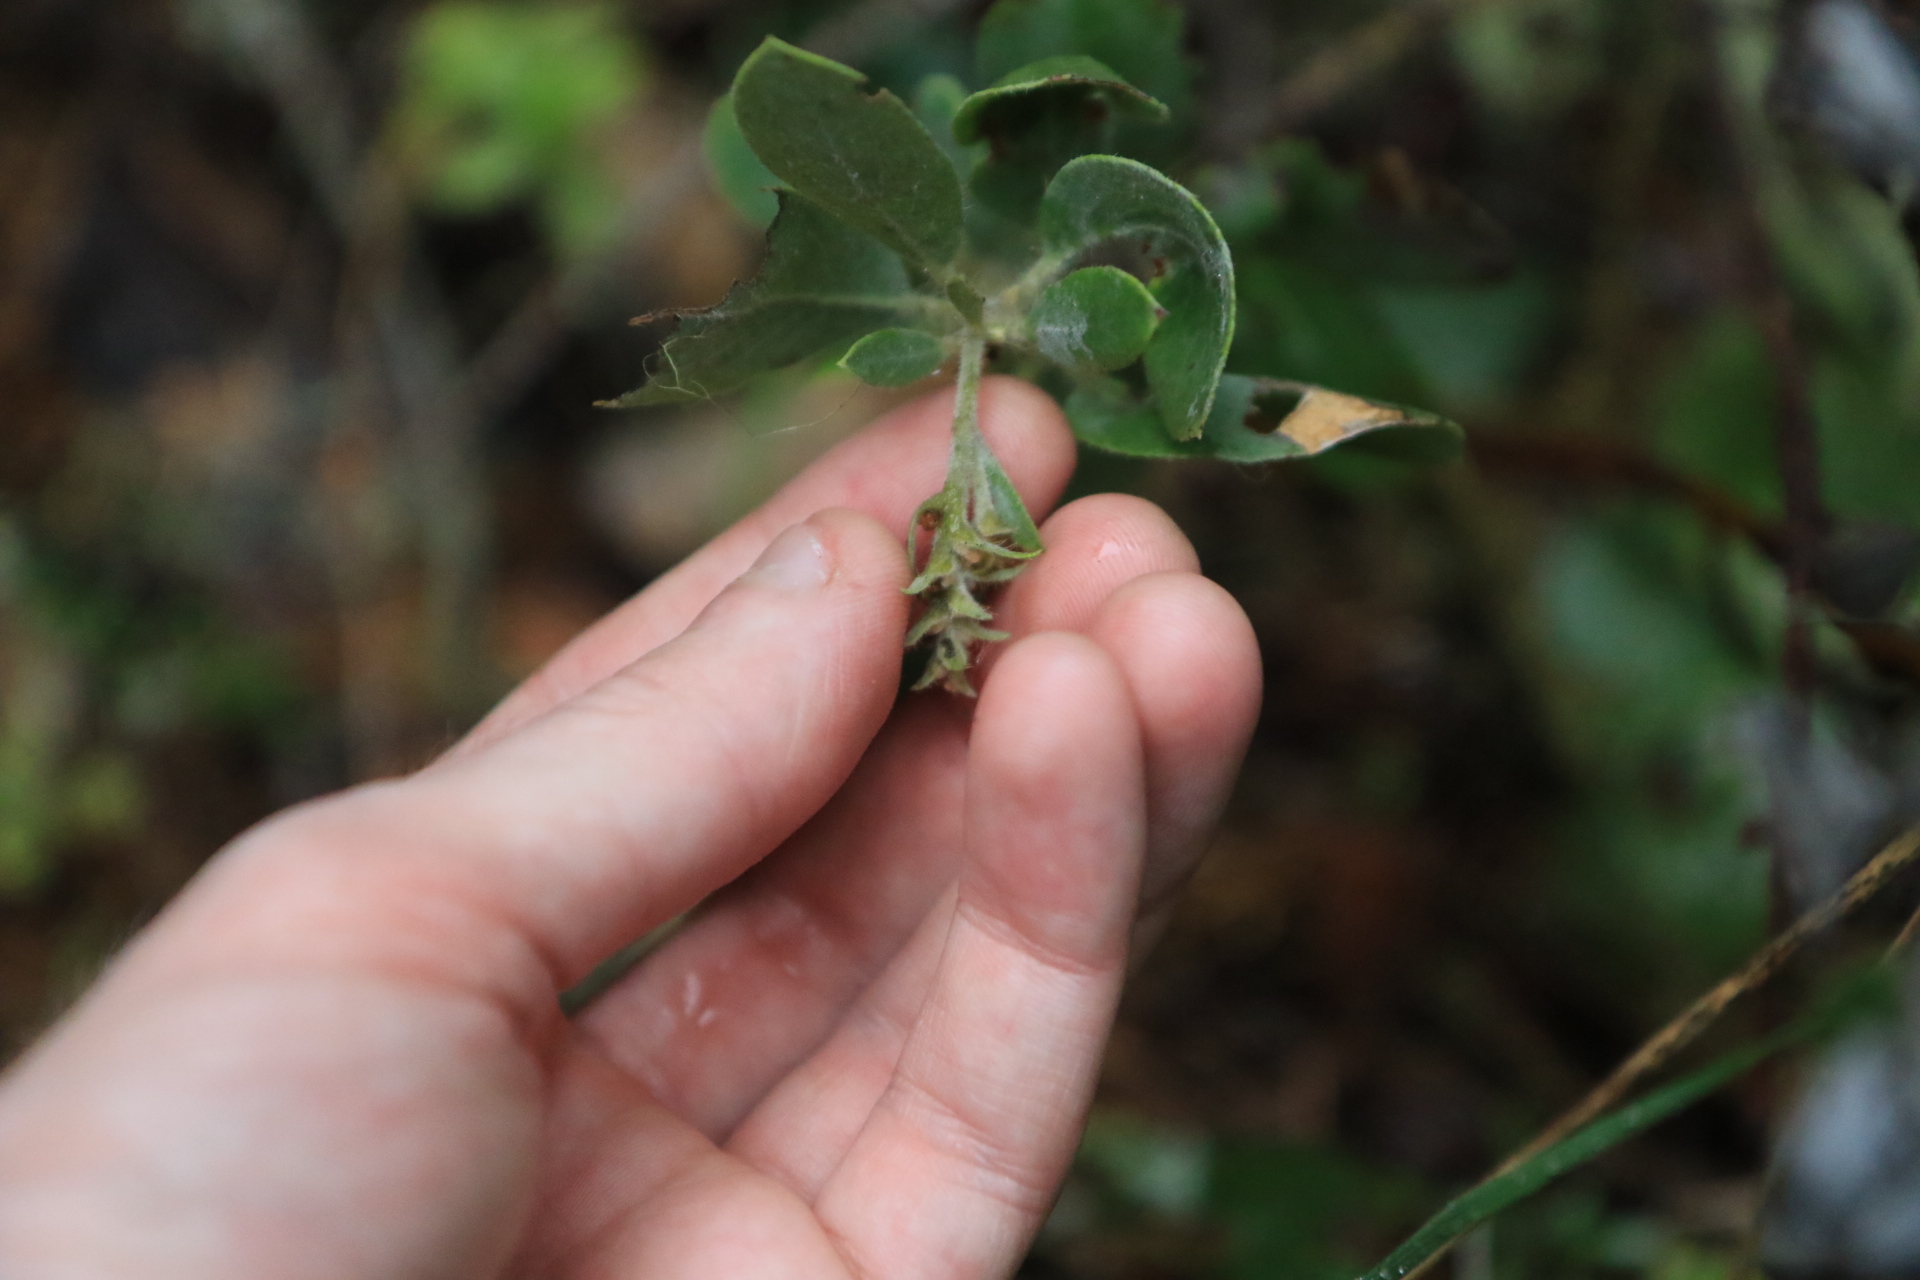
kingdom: Plantae
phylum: Tracheophyta
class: Magnoliopsida
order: Ericales
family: Ericaceae
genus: Arctostaphylos
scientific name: Arctostaphylos columbiana
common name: Bristly bearberry
